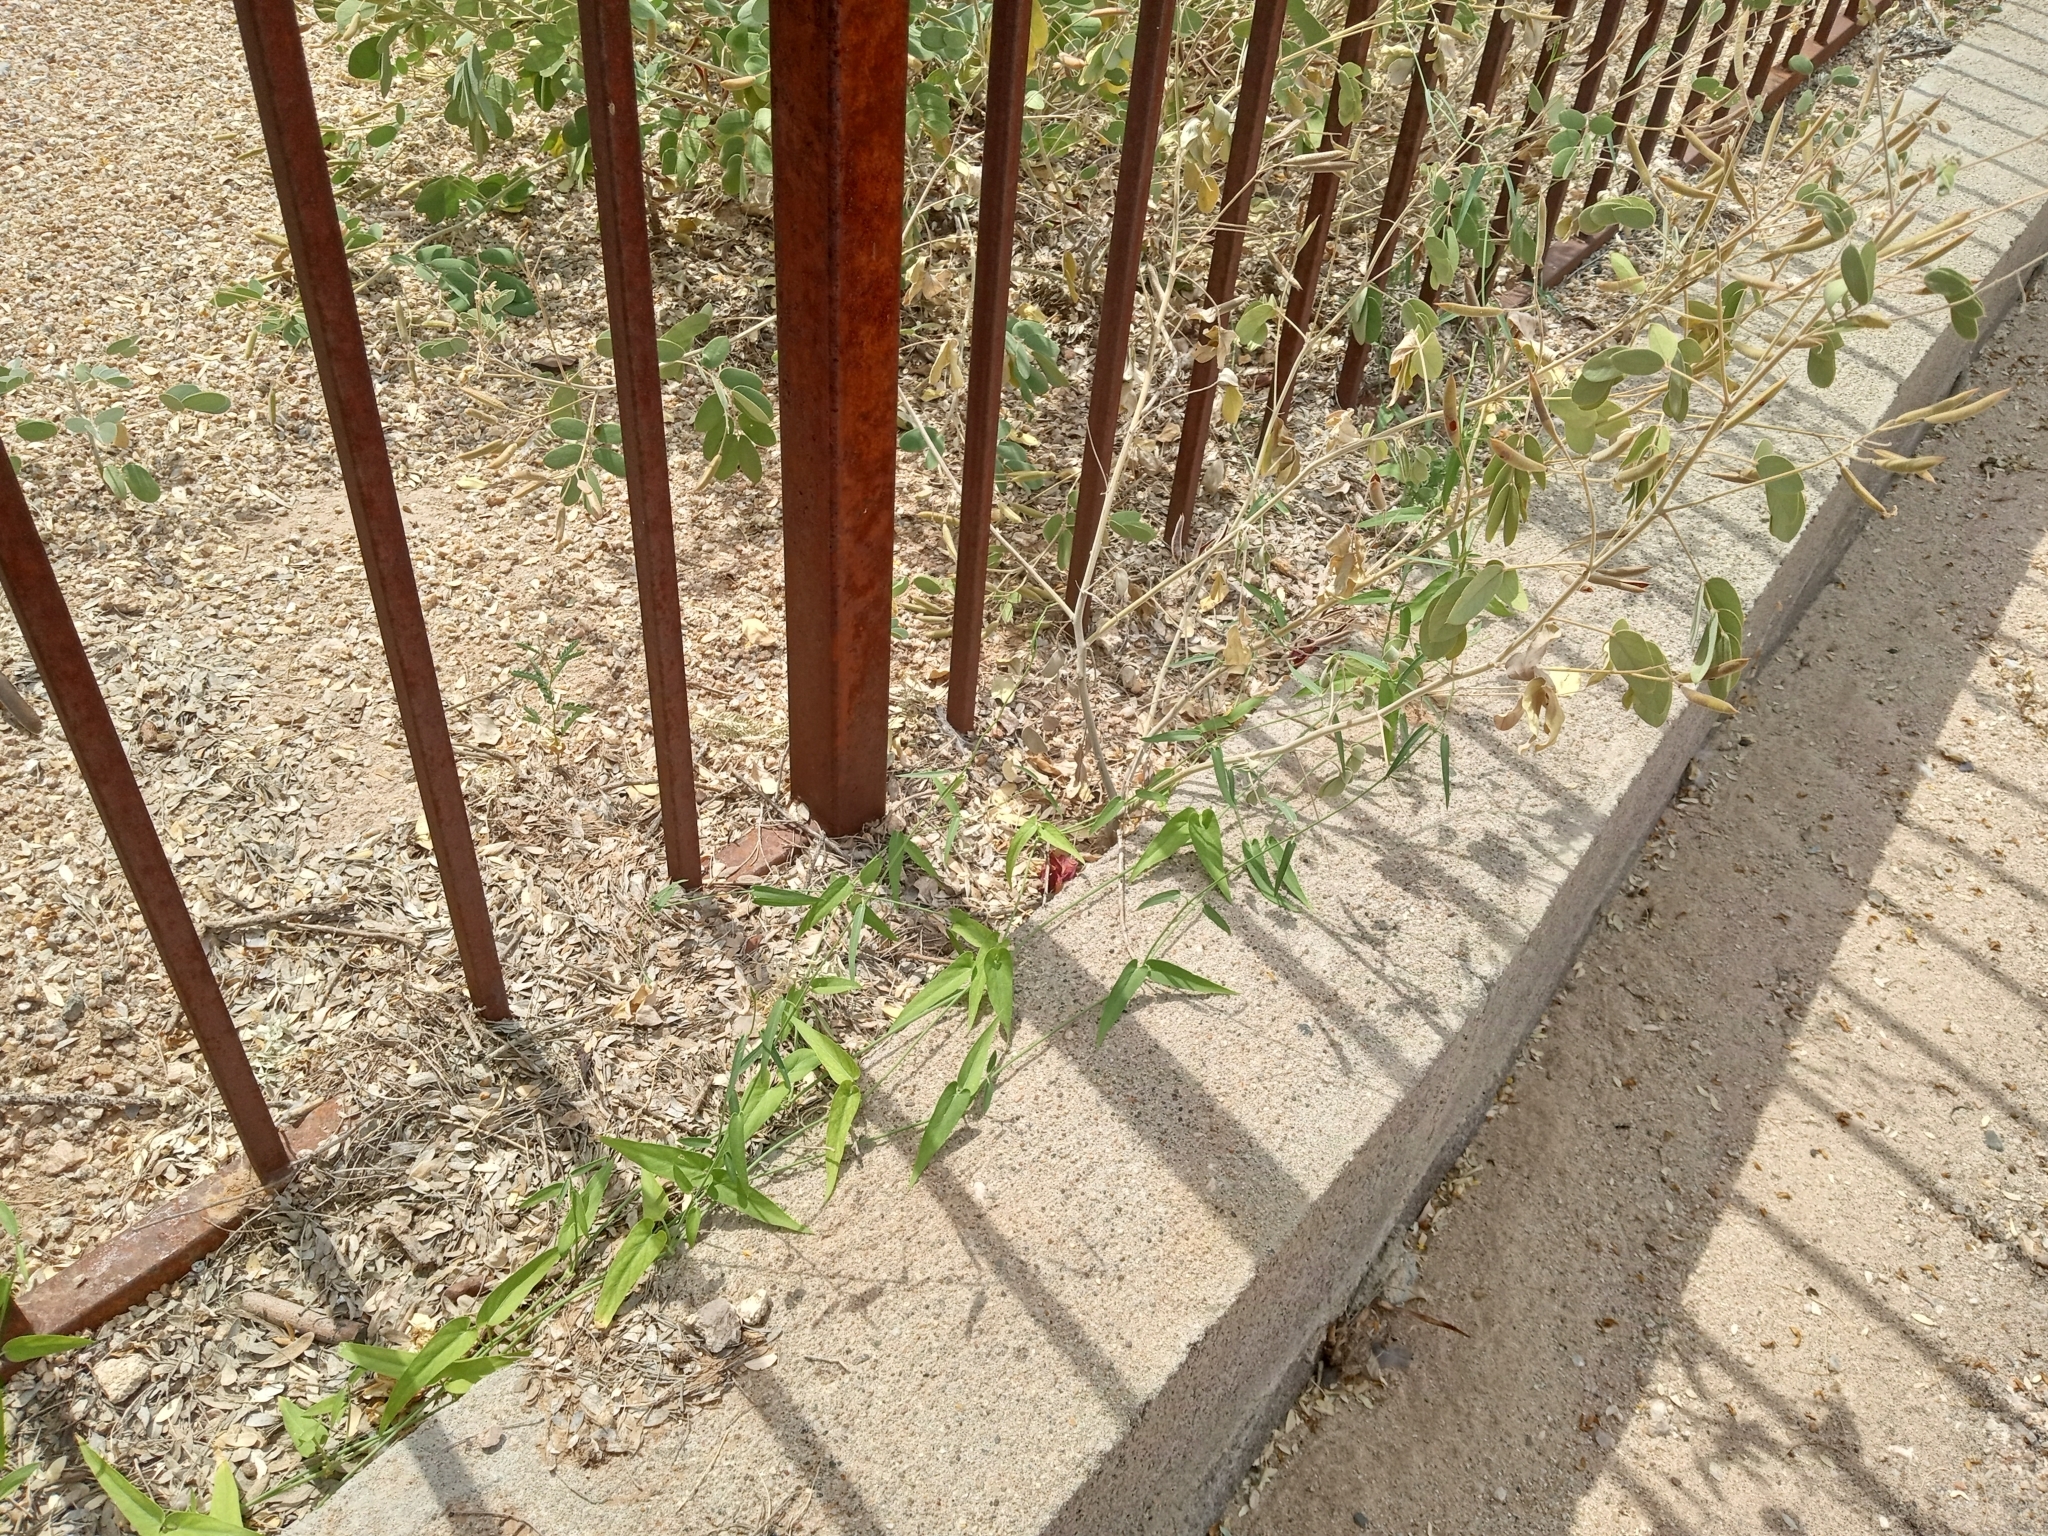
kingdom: Plantae
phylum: Tracheophyta
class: Magnoliopsida
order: Gentianales
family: Apocynaceae
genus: Funastrum
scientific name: Funastrum heterophyllum
